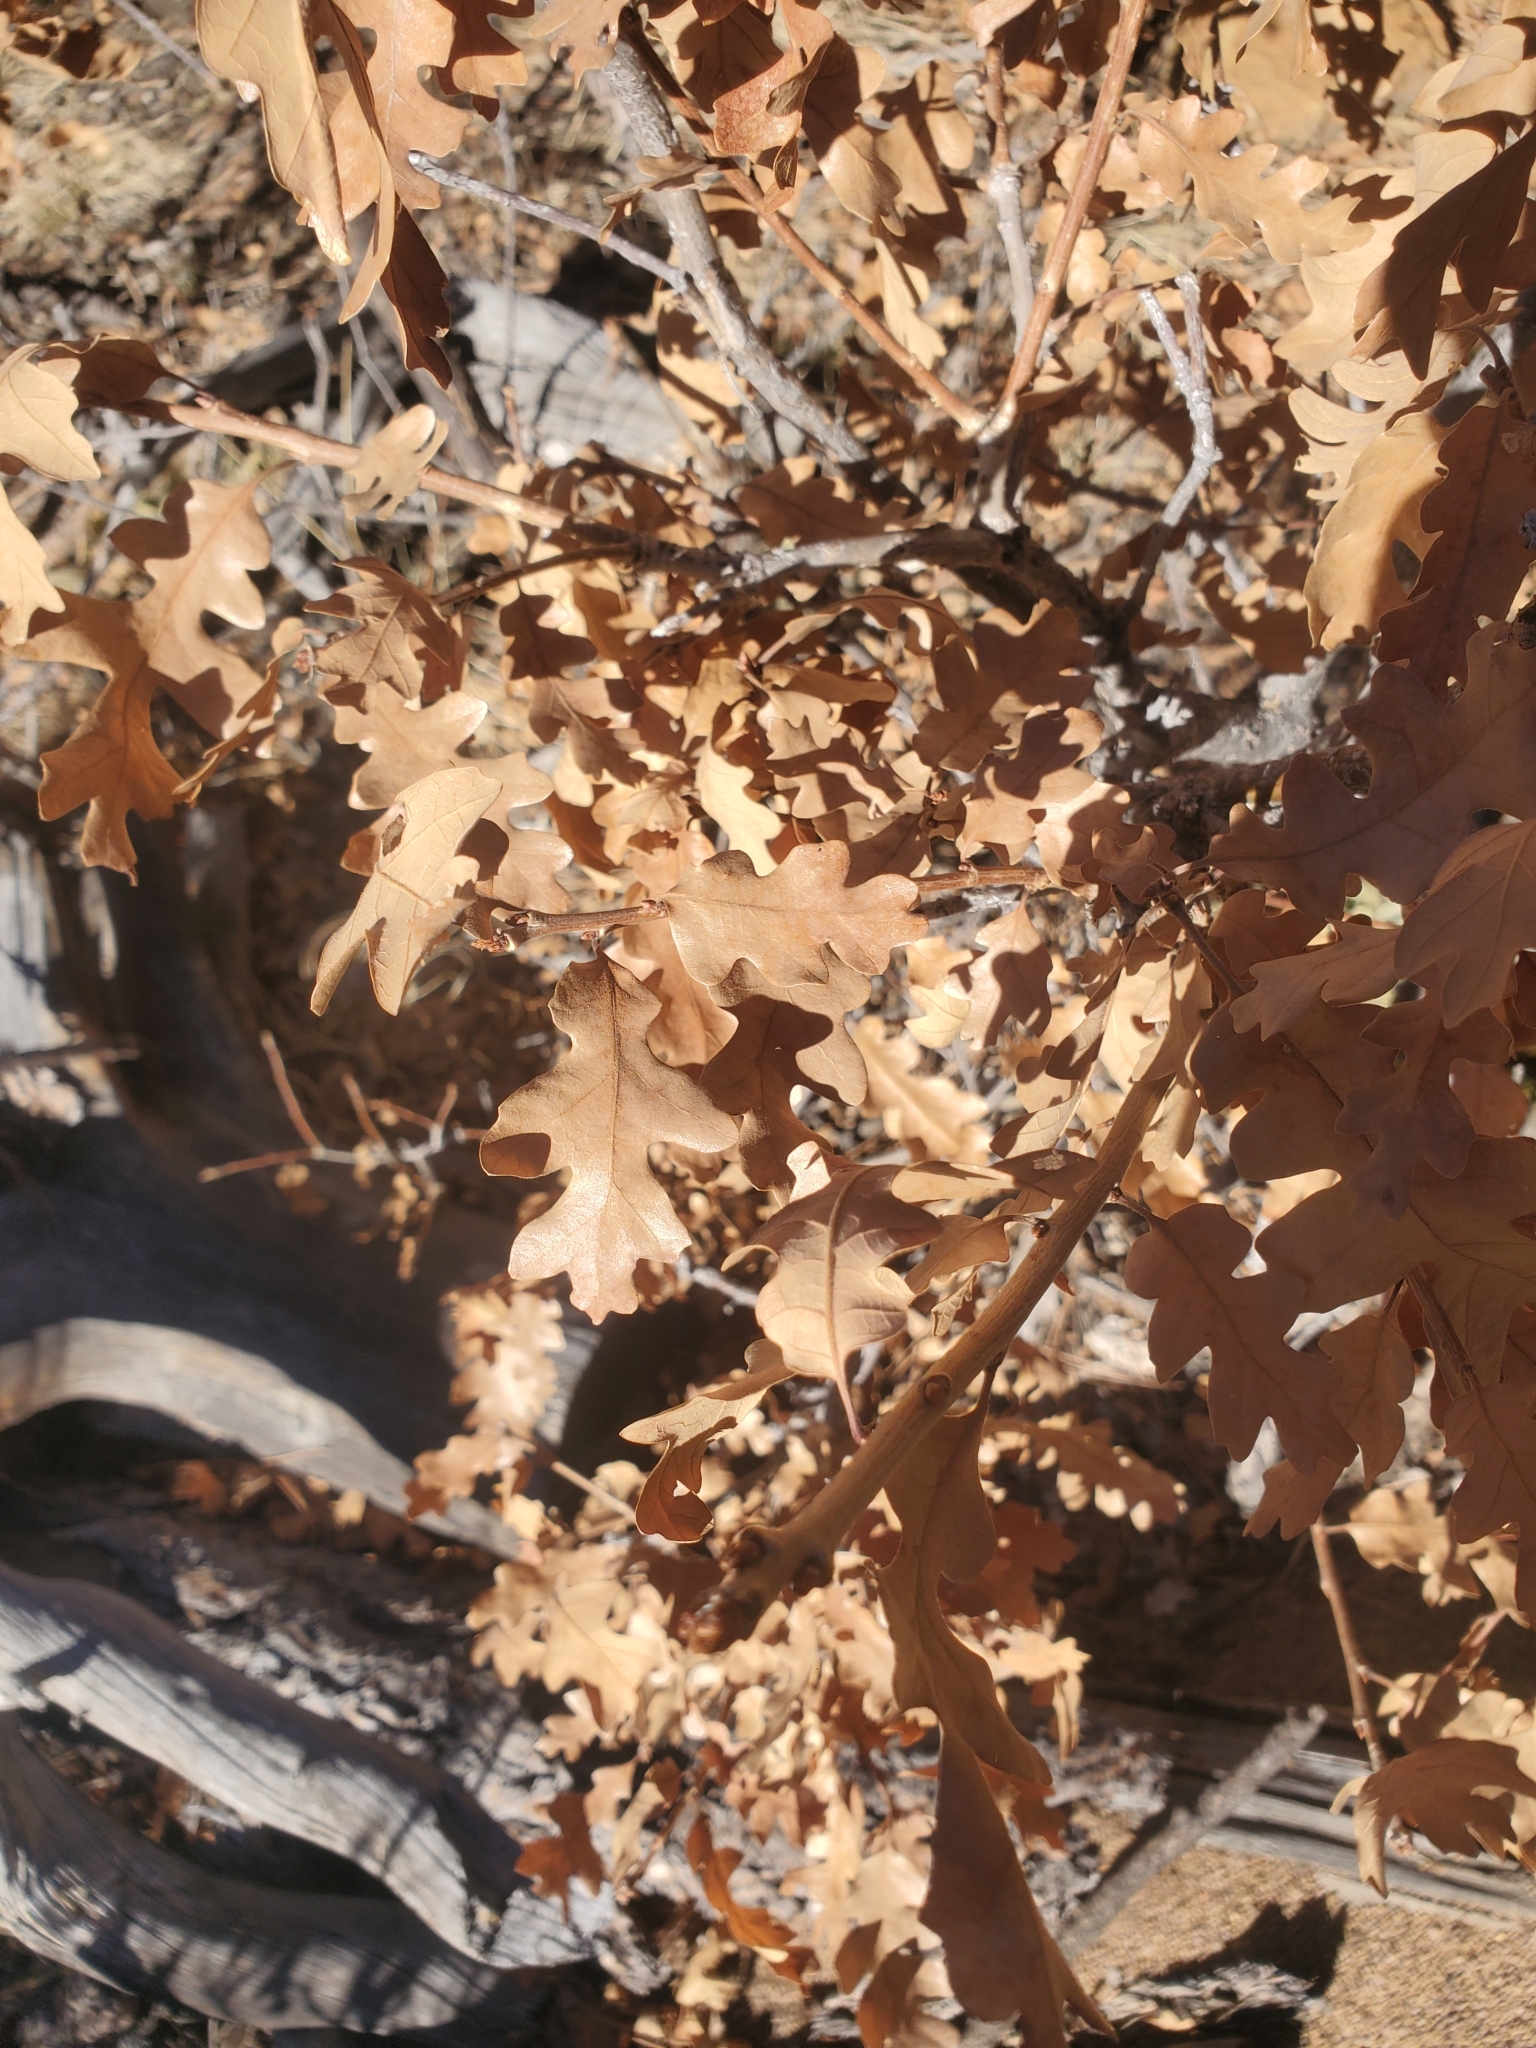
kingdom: Plantae
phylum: Tracheophyta
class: Magnoliopsida
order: Fagales
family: Fagaceae
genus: Quercus
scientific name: Quercus gambelii
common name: Gambel oak
